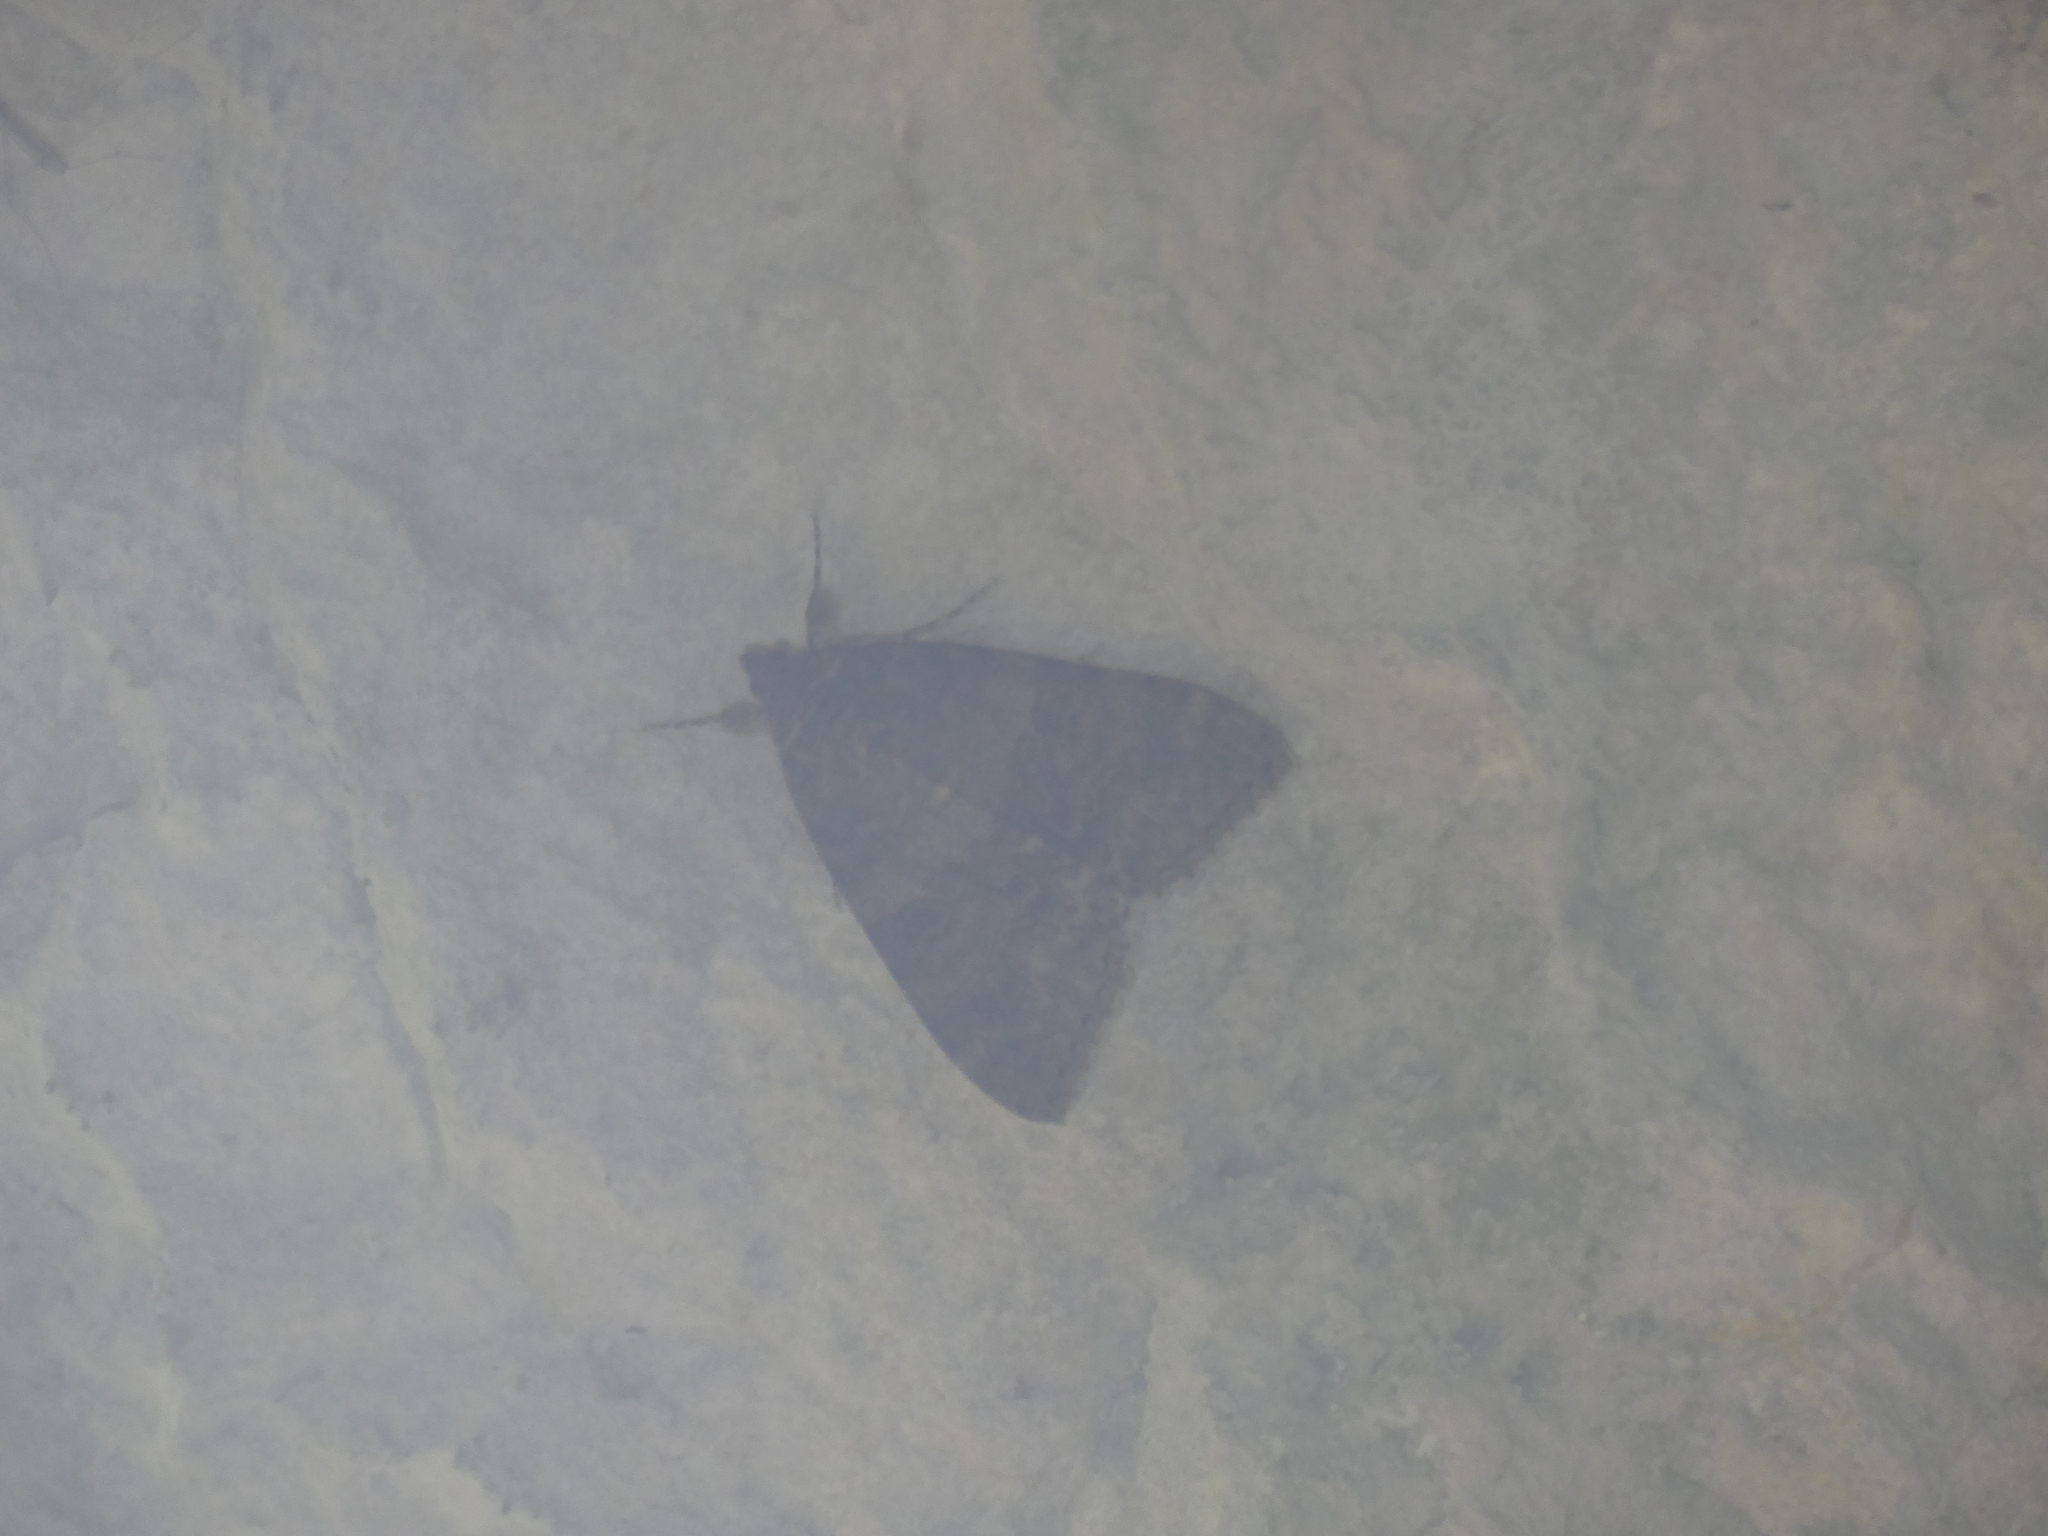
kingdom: Animalia
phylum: Arthropoda
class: Insecta
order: Lepidoptera
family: Erebidae
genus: Catocala
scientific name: Catocala nupta
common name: Red underwing
